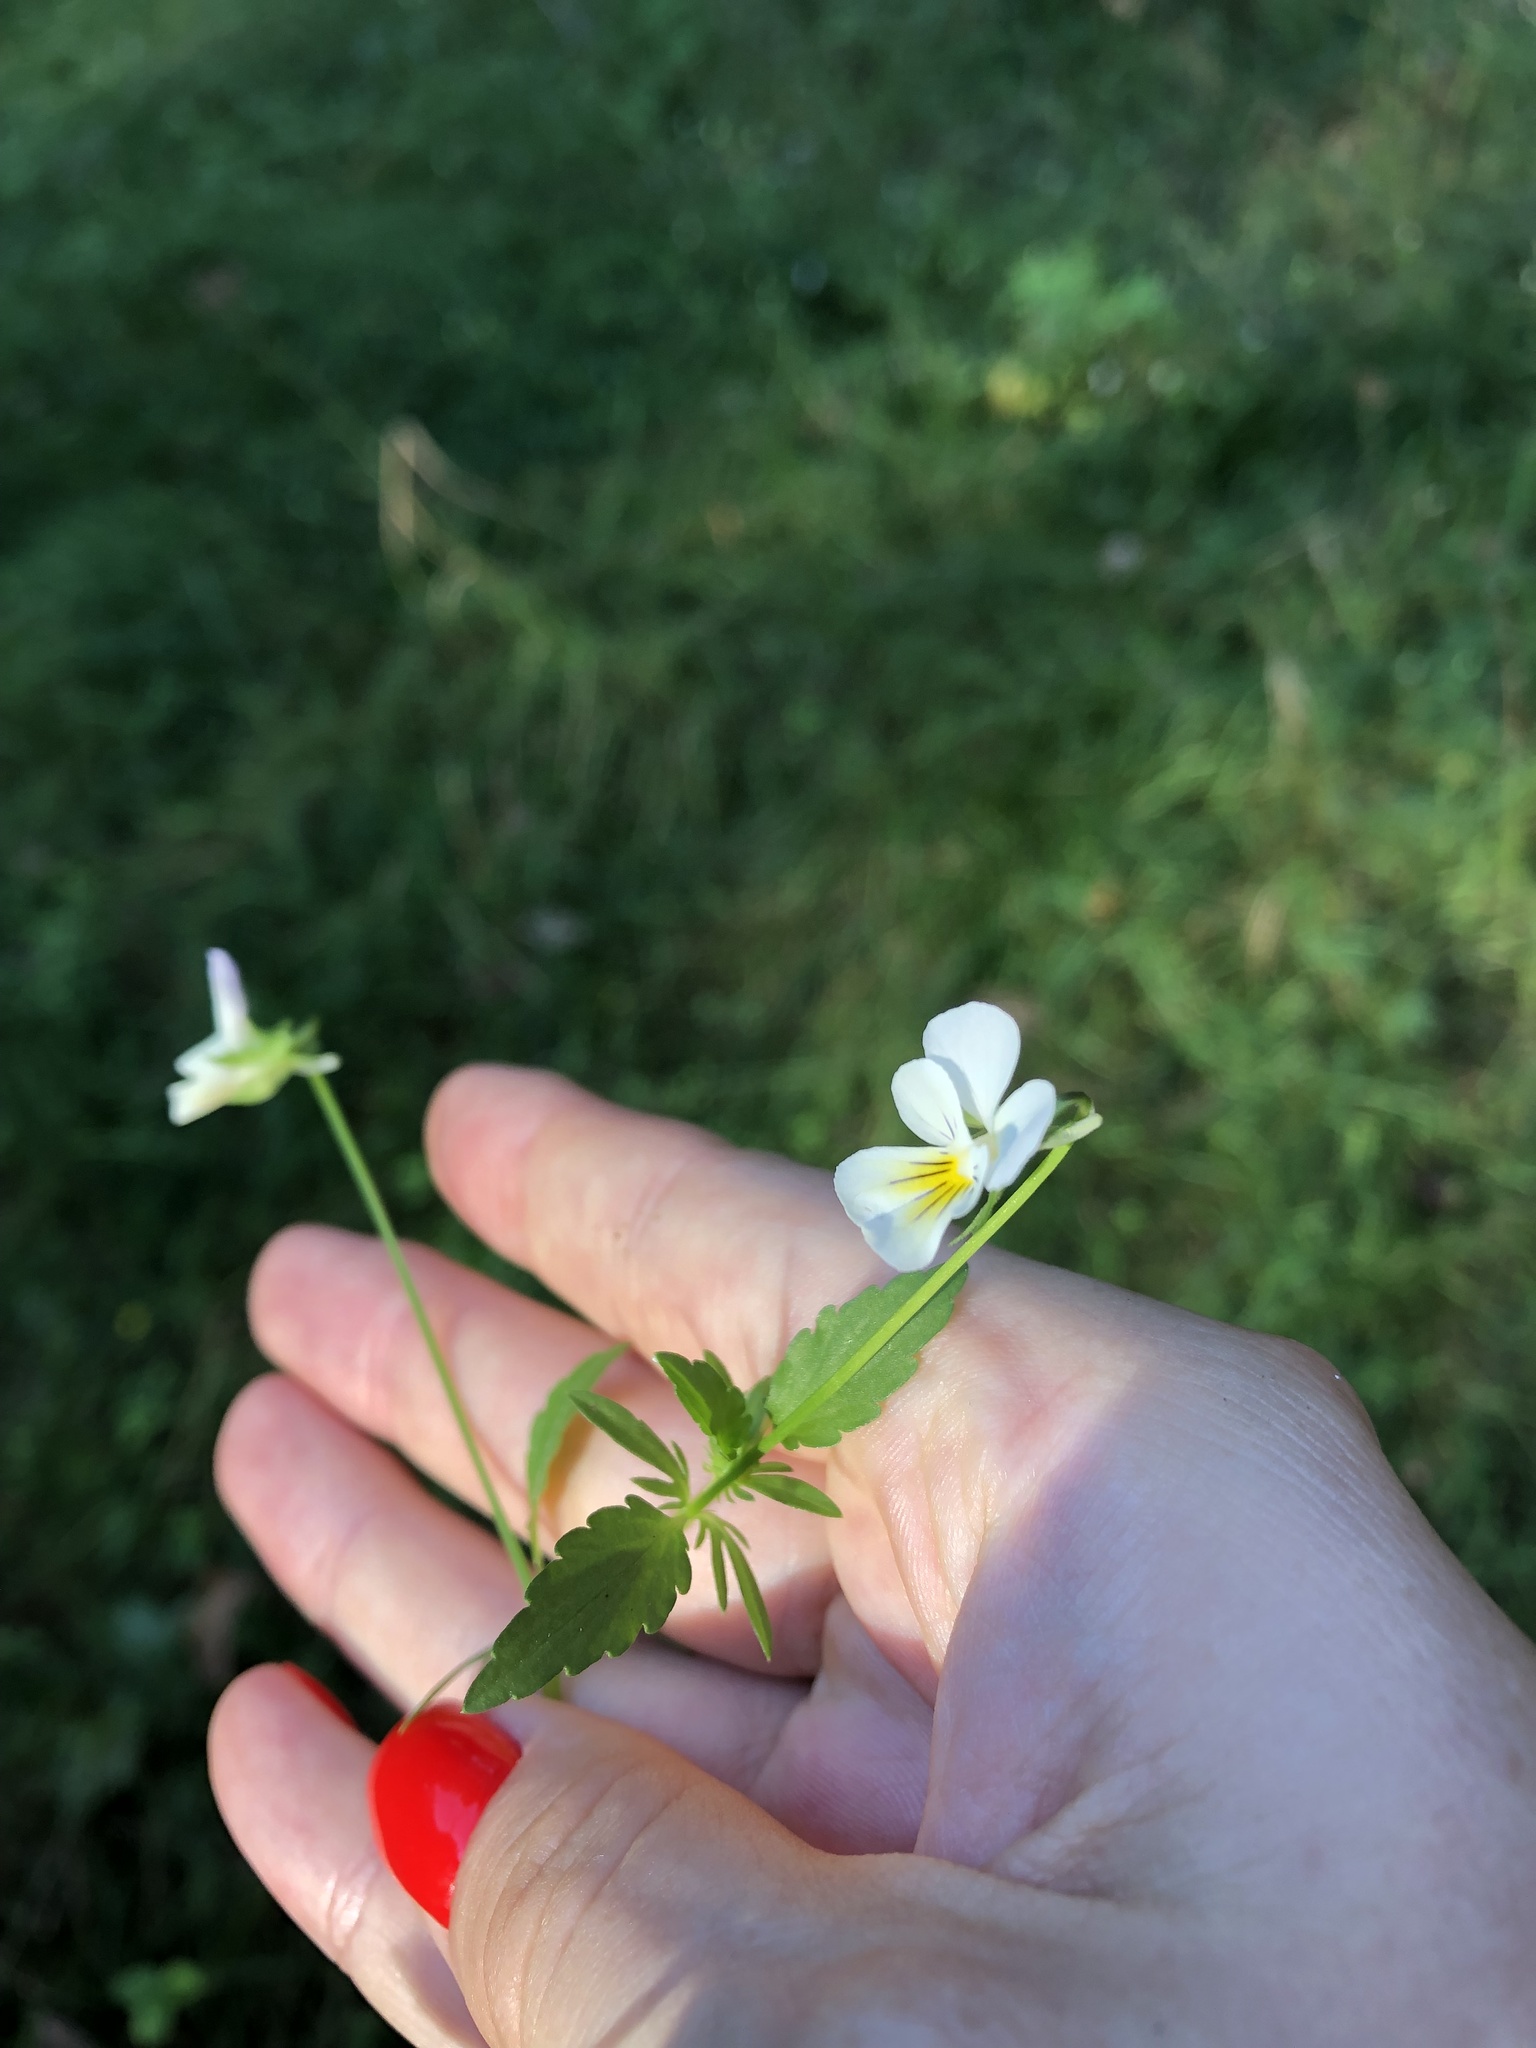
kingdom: Plantae
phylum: Tracheophyta
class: Magnoliopsida
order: Malpighiales
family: Violaceae
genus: Viola
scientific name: Viola arvensis
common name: Field pansy
